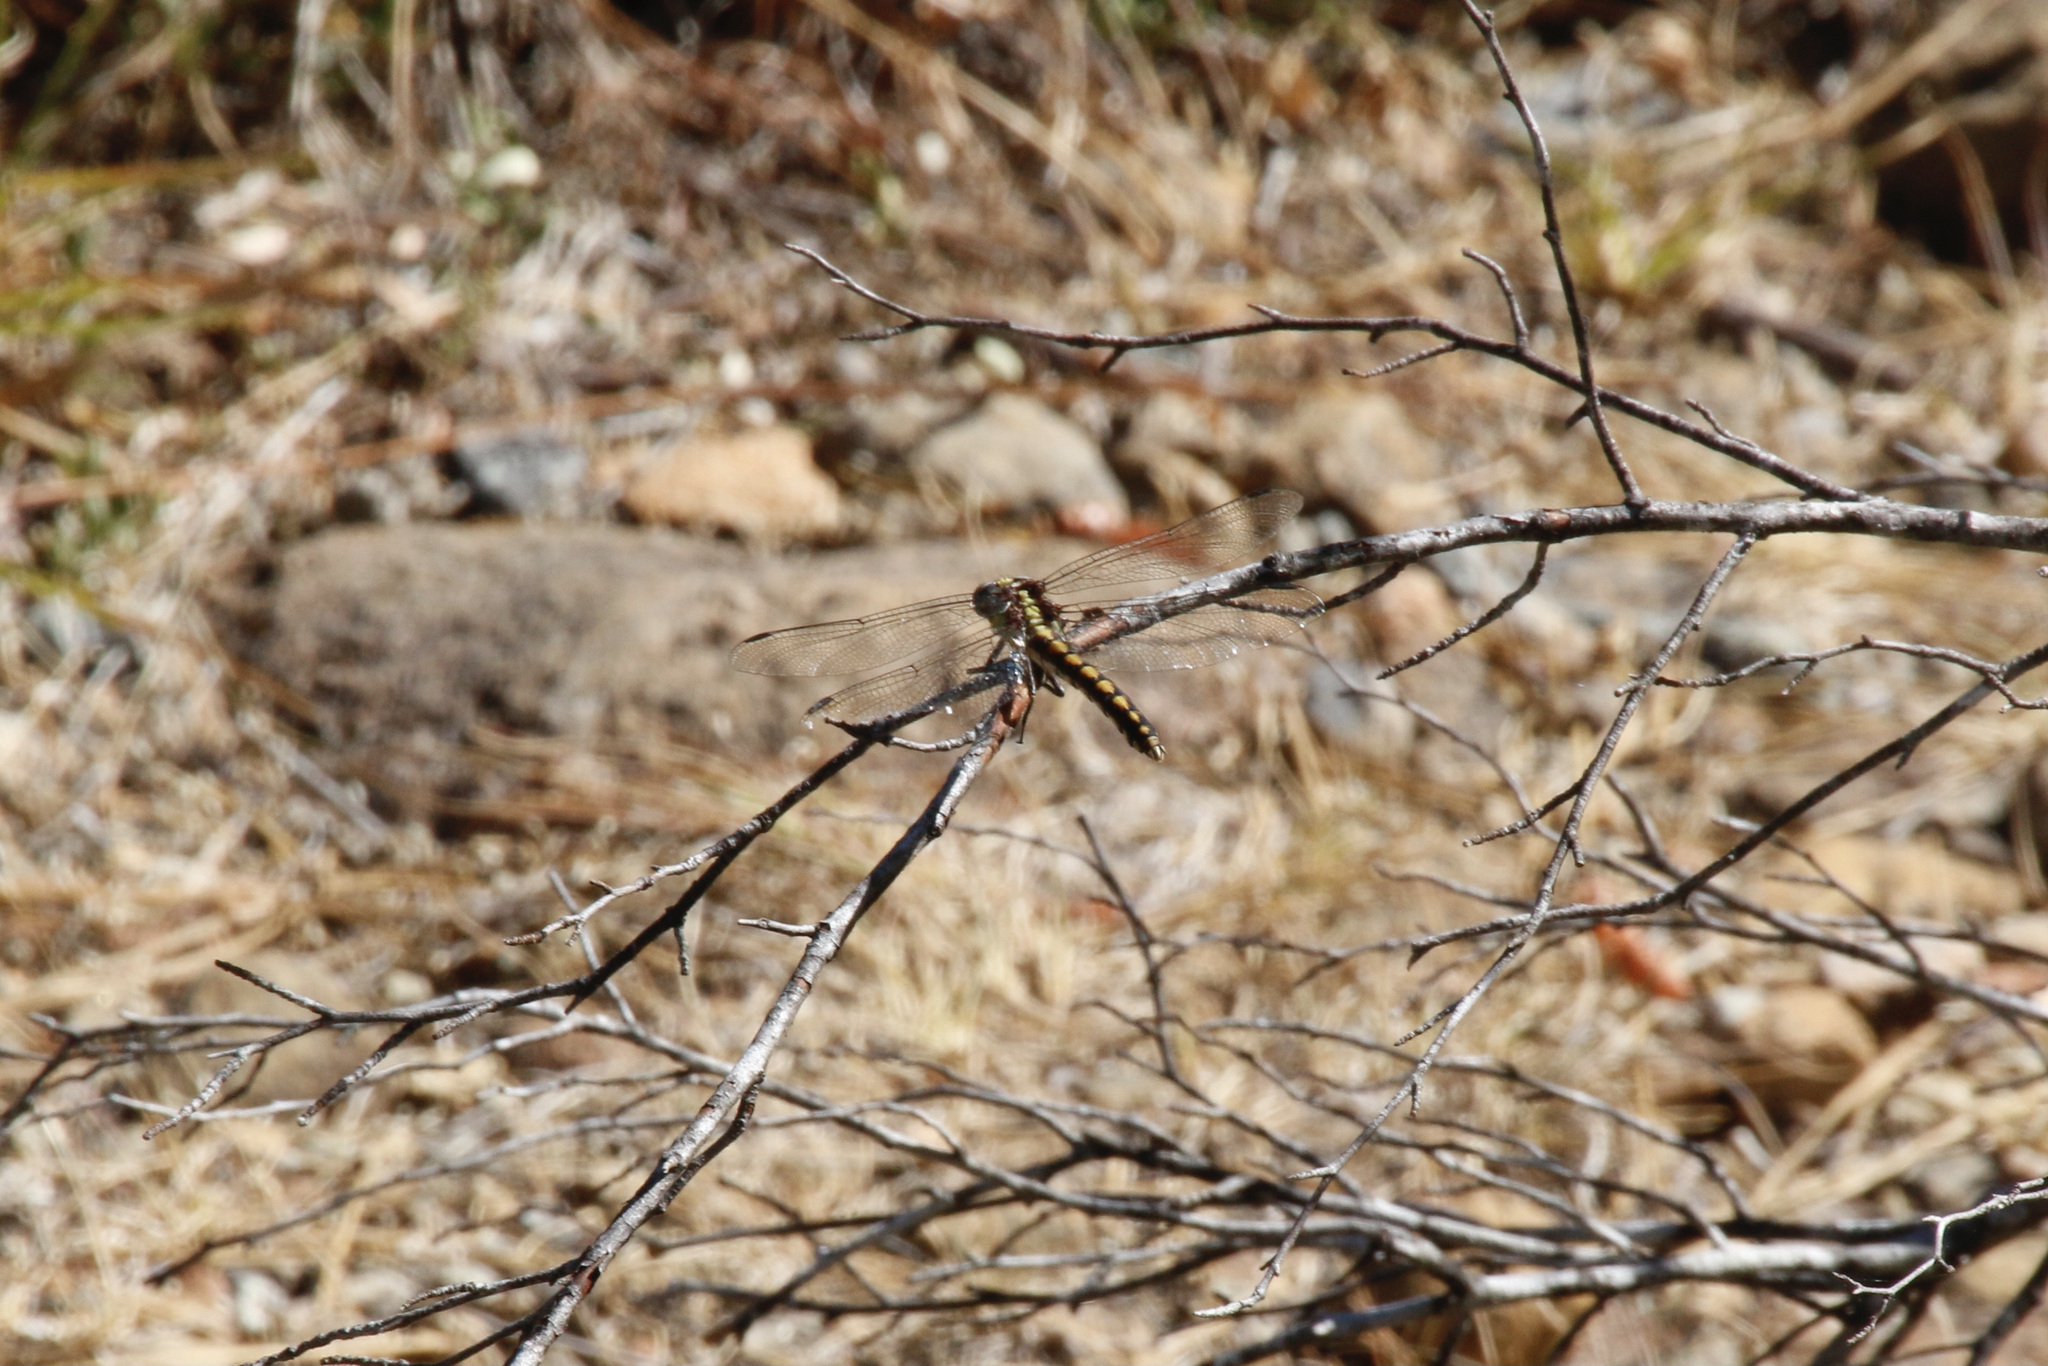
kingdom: Animalia
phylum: Arthropoda
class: Insecta
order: Odonata
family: Gomphidae
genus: Ophiogomphus
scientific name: Ophiogomphus bison
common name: Bison snaketail
